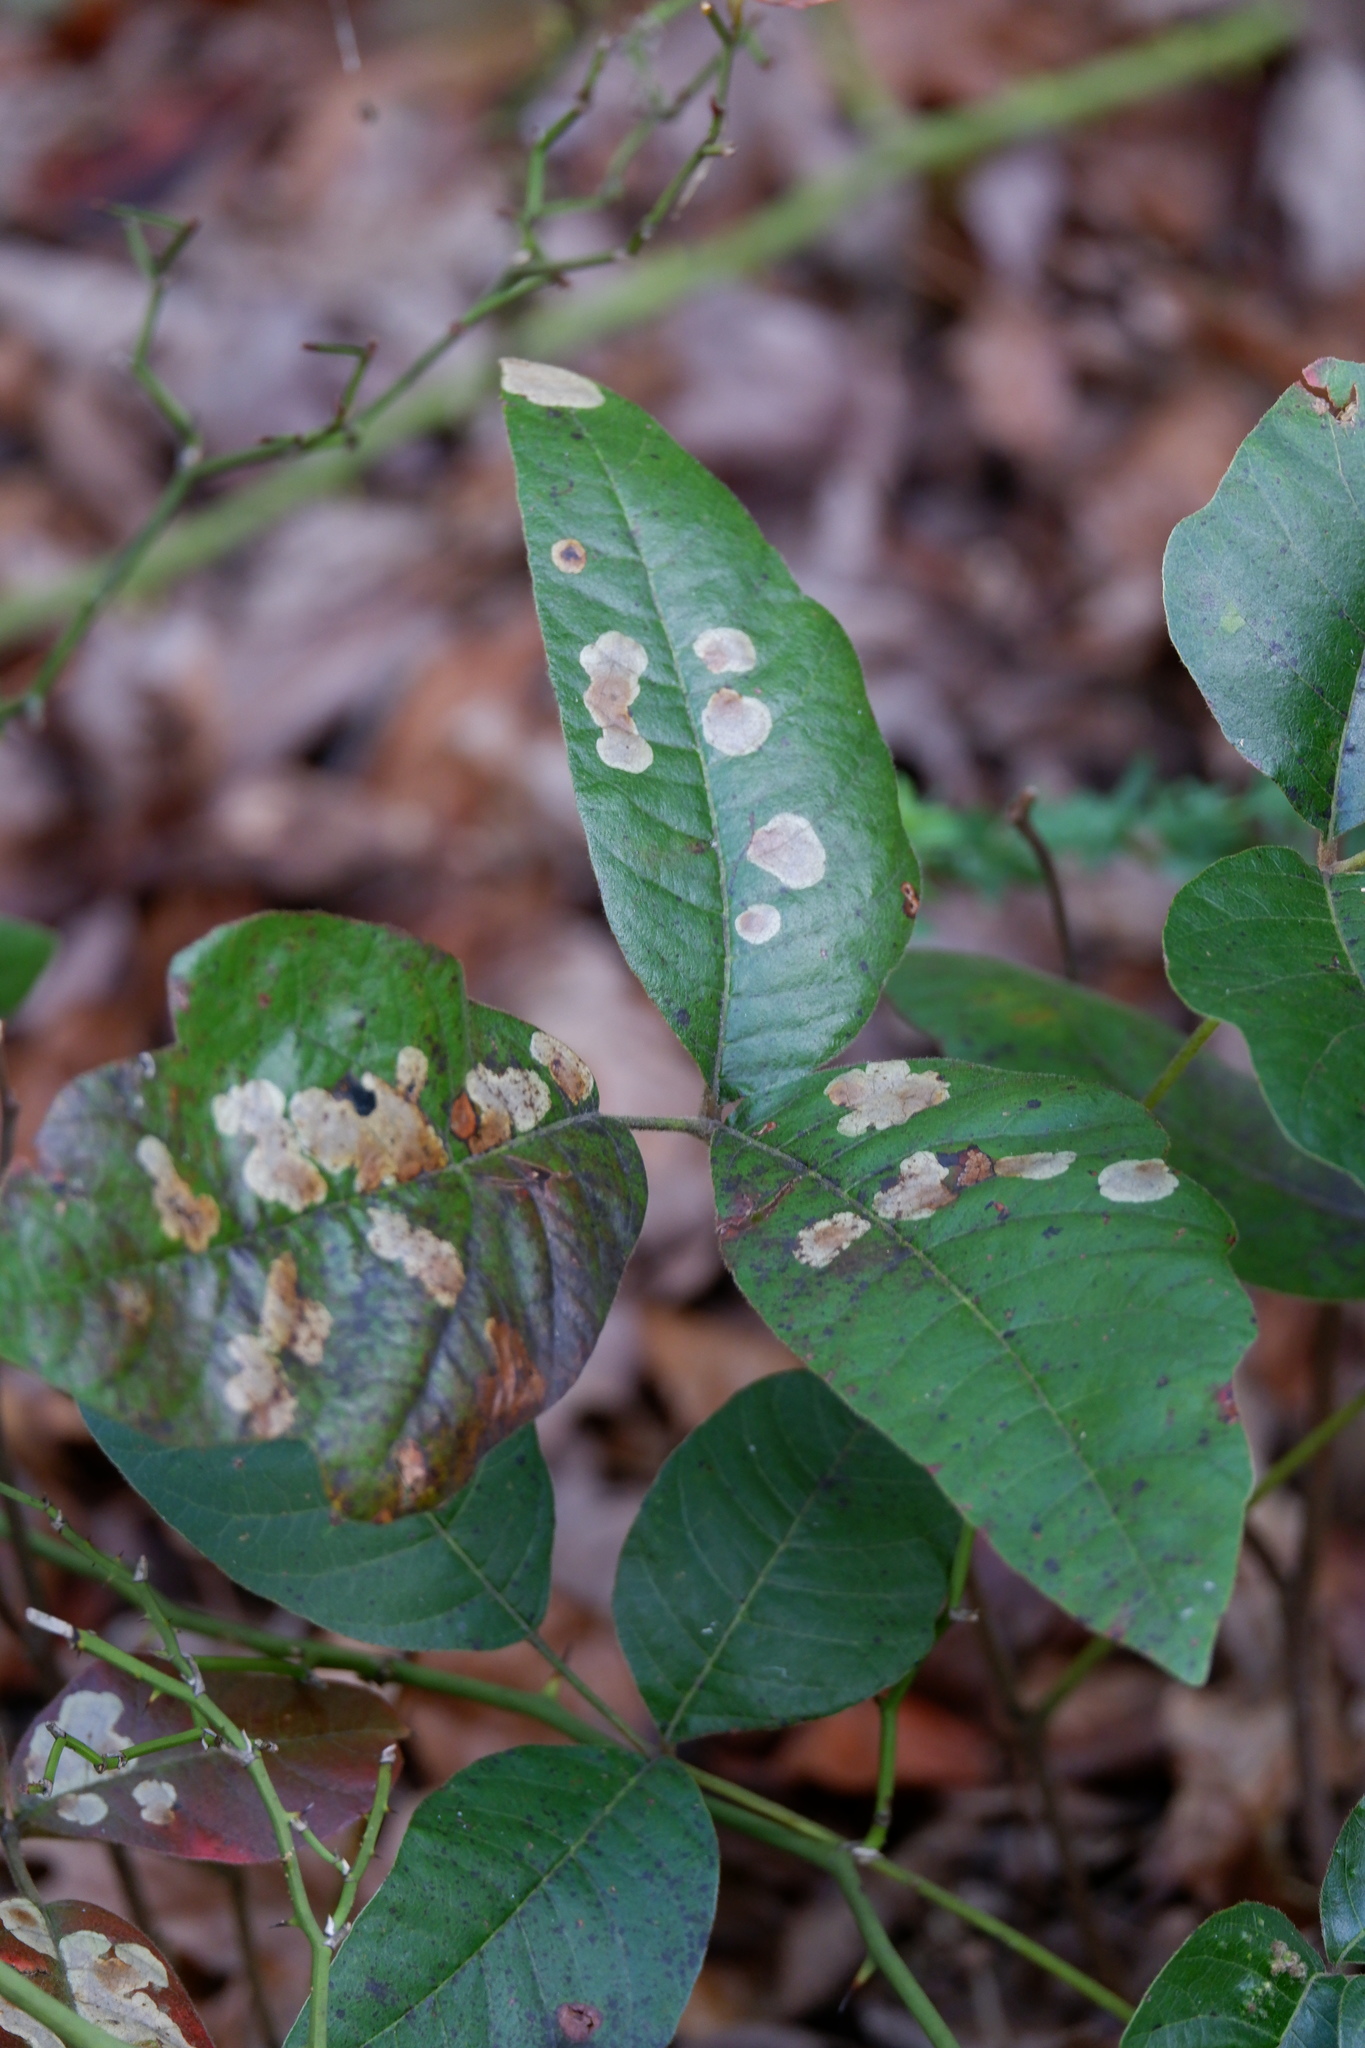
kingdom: Animalia
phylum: Arthropoda
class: Insecta
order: Lepidoptera
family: Gracillariidae
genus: Cameraria
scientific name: Cameraria guttifinitella
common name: Poison ivy leaf-miner moth
